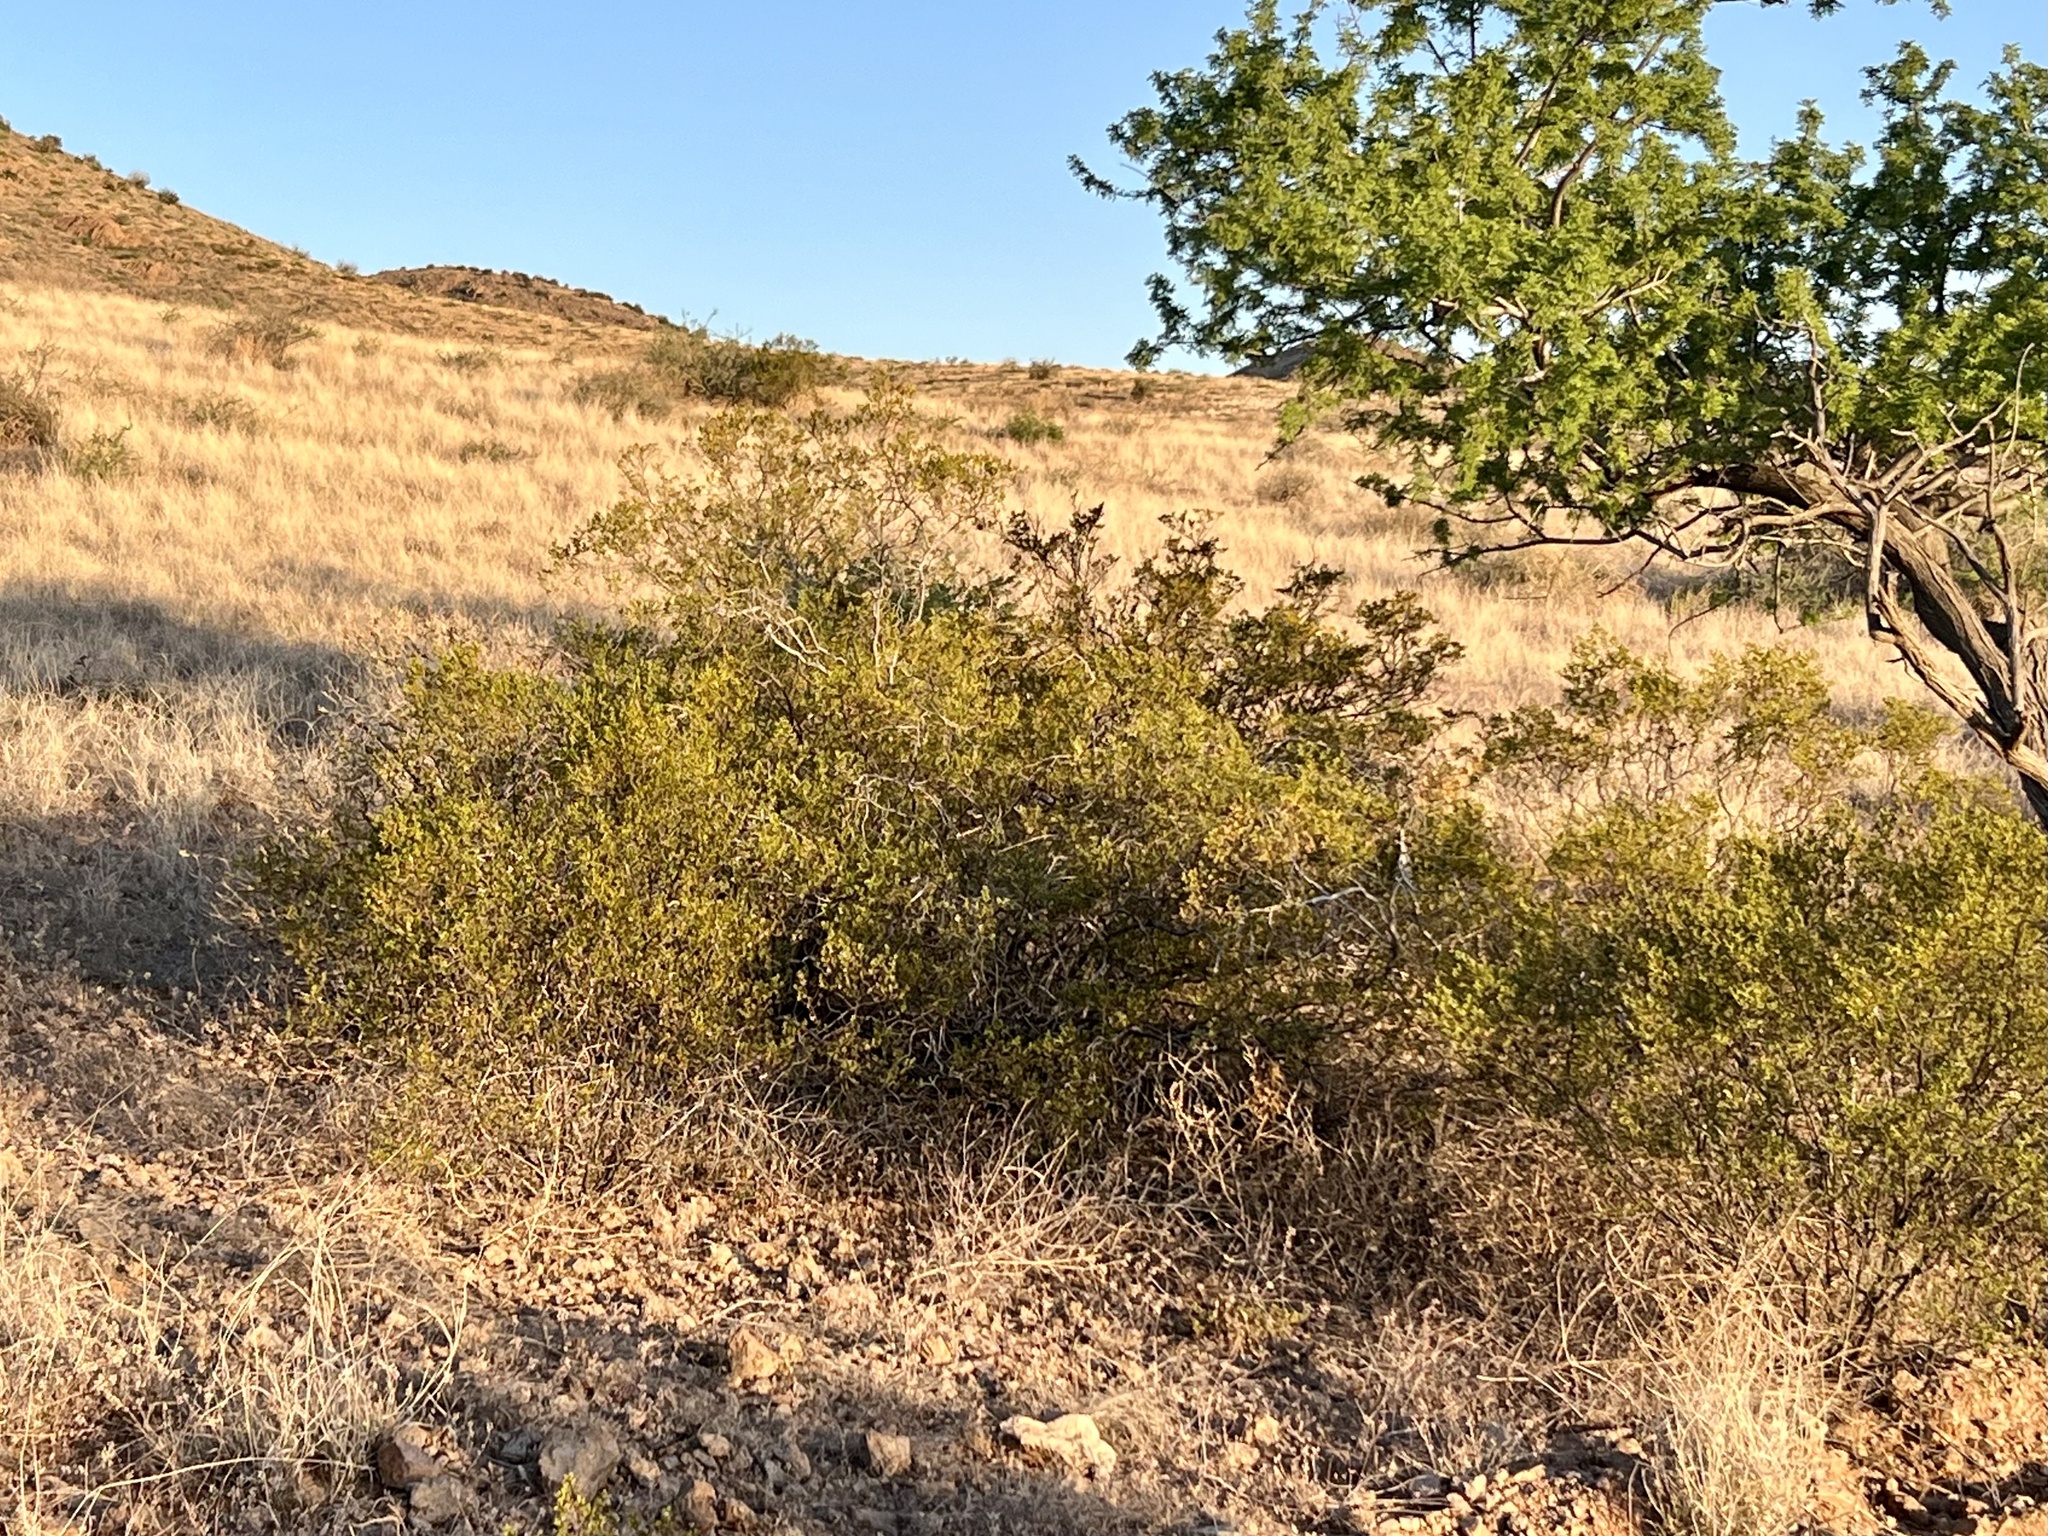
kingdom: Plantae
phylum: Tracheophyta
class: Magnoliopsida
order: Zygophyllales
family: Zygophyllaceae
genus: Larrea
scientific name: Larrea tridentata
